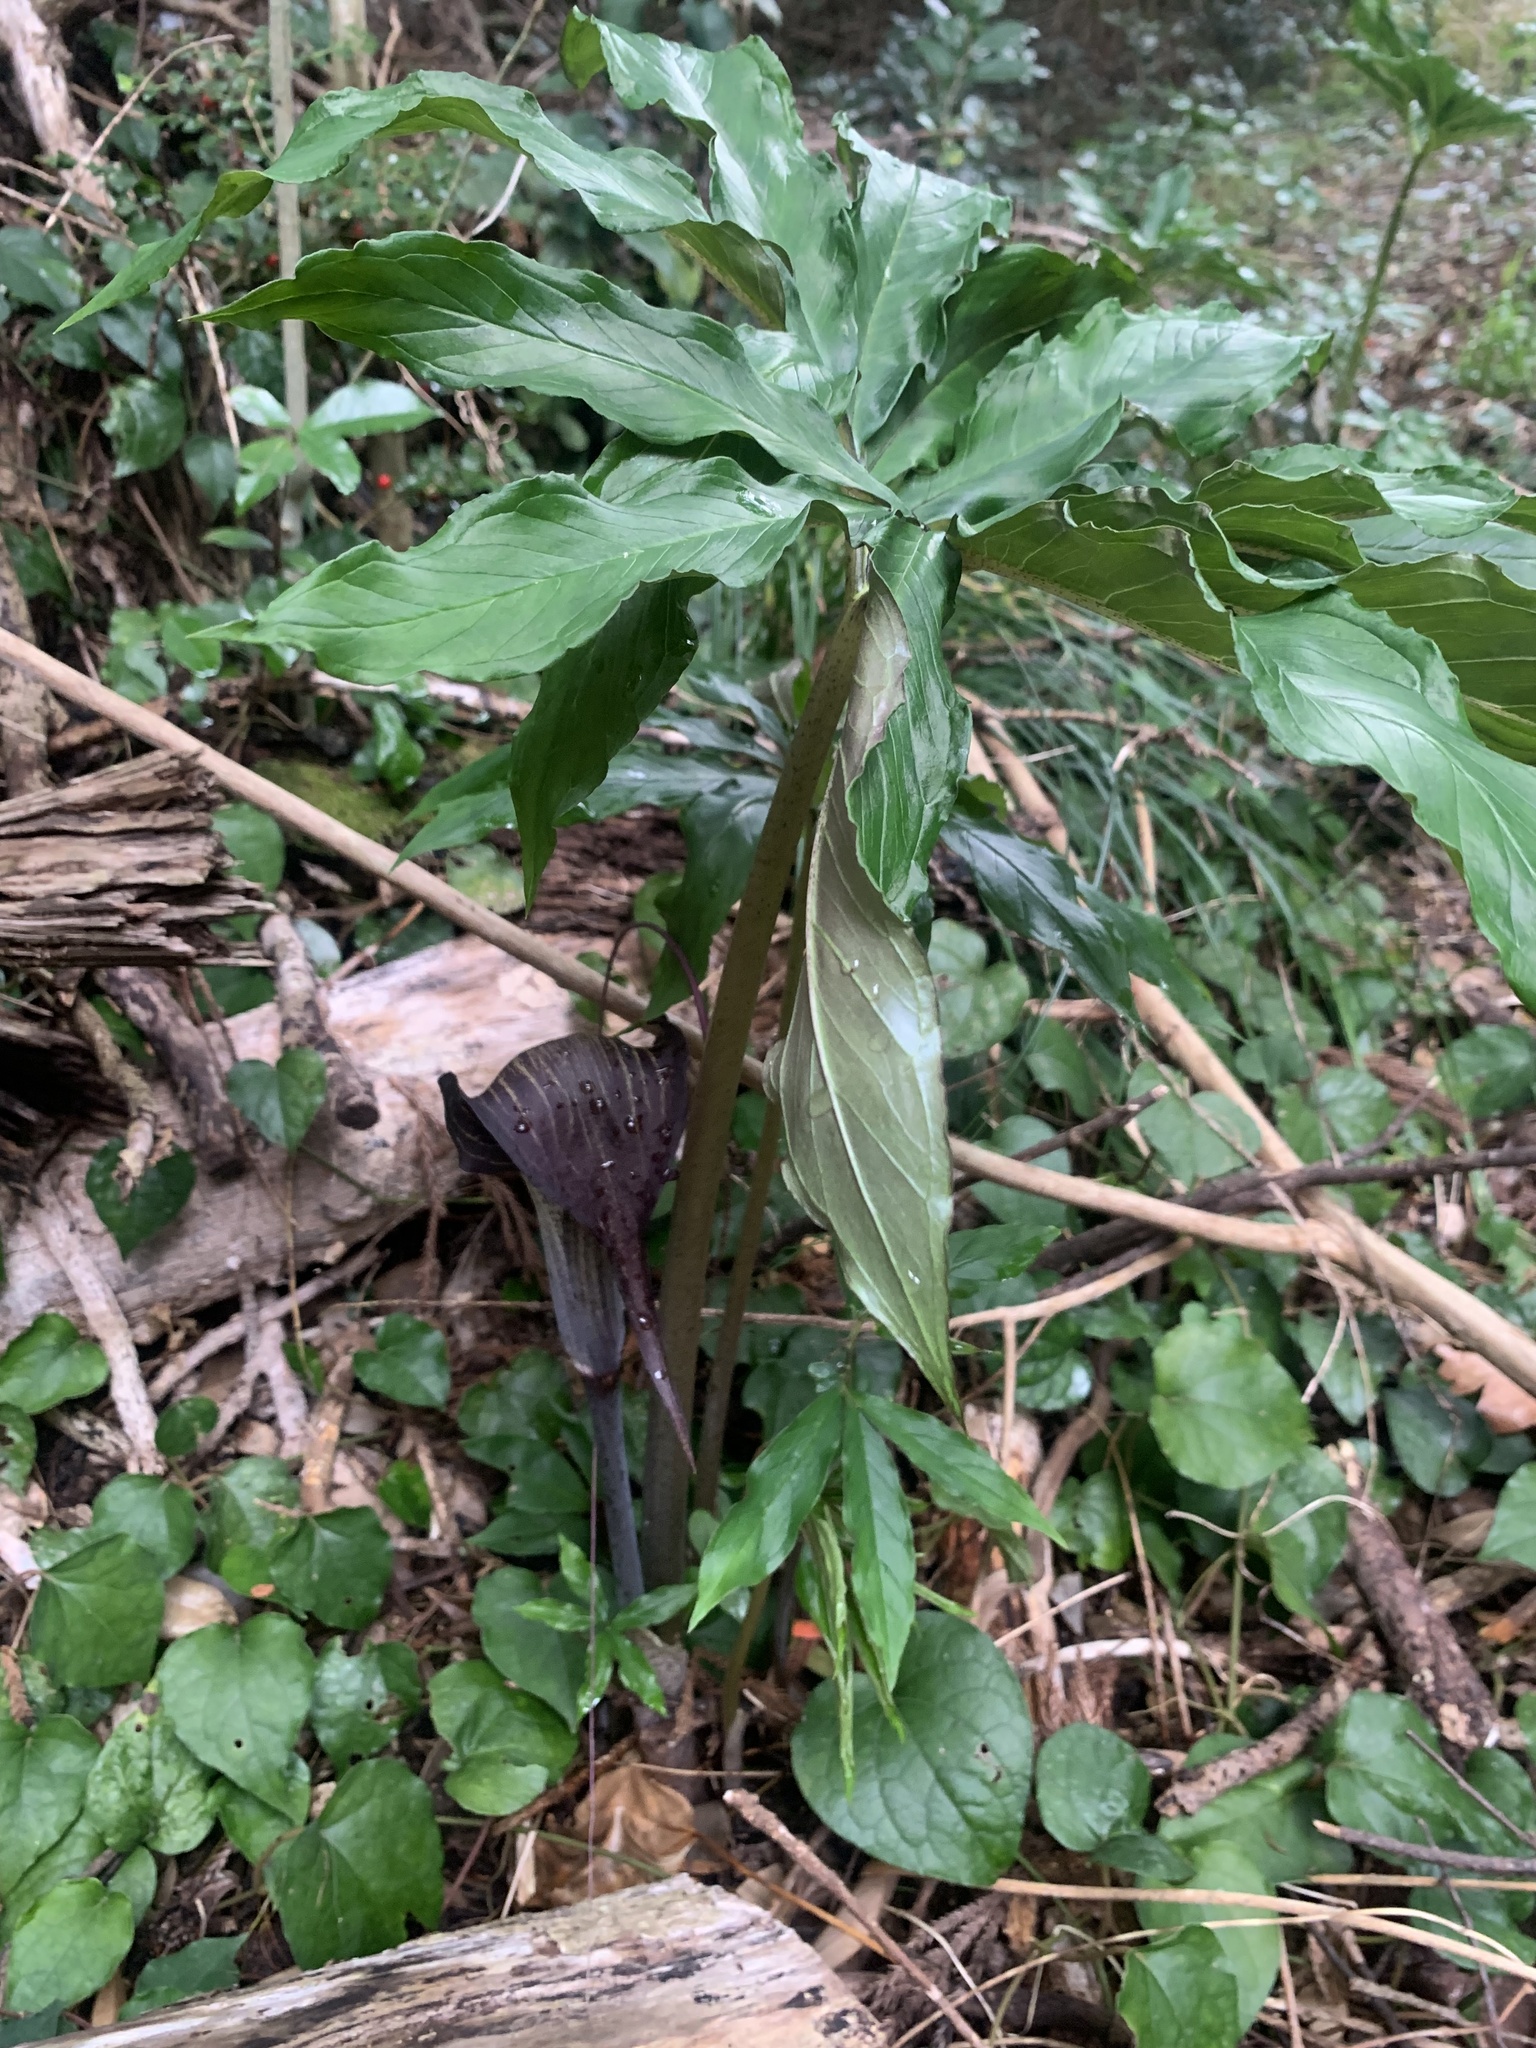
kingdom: Plantae
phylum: Tracheophyta
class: Liliopsida
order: Alismatales
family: Araceae
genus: Arisaema
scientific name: Arisaema thunbergii
